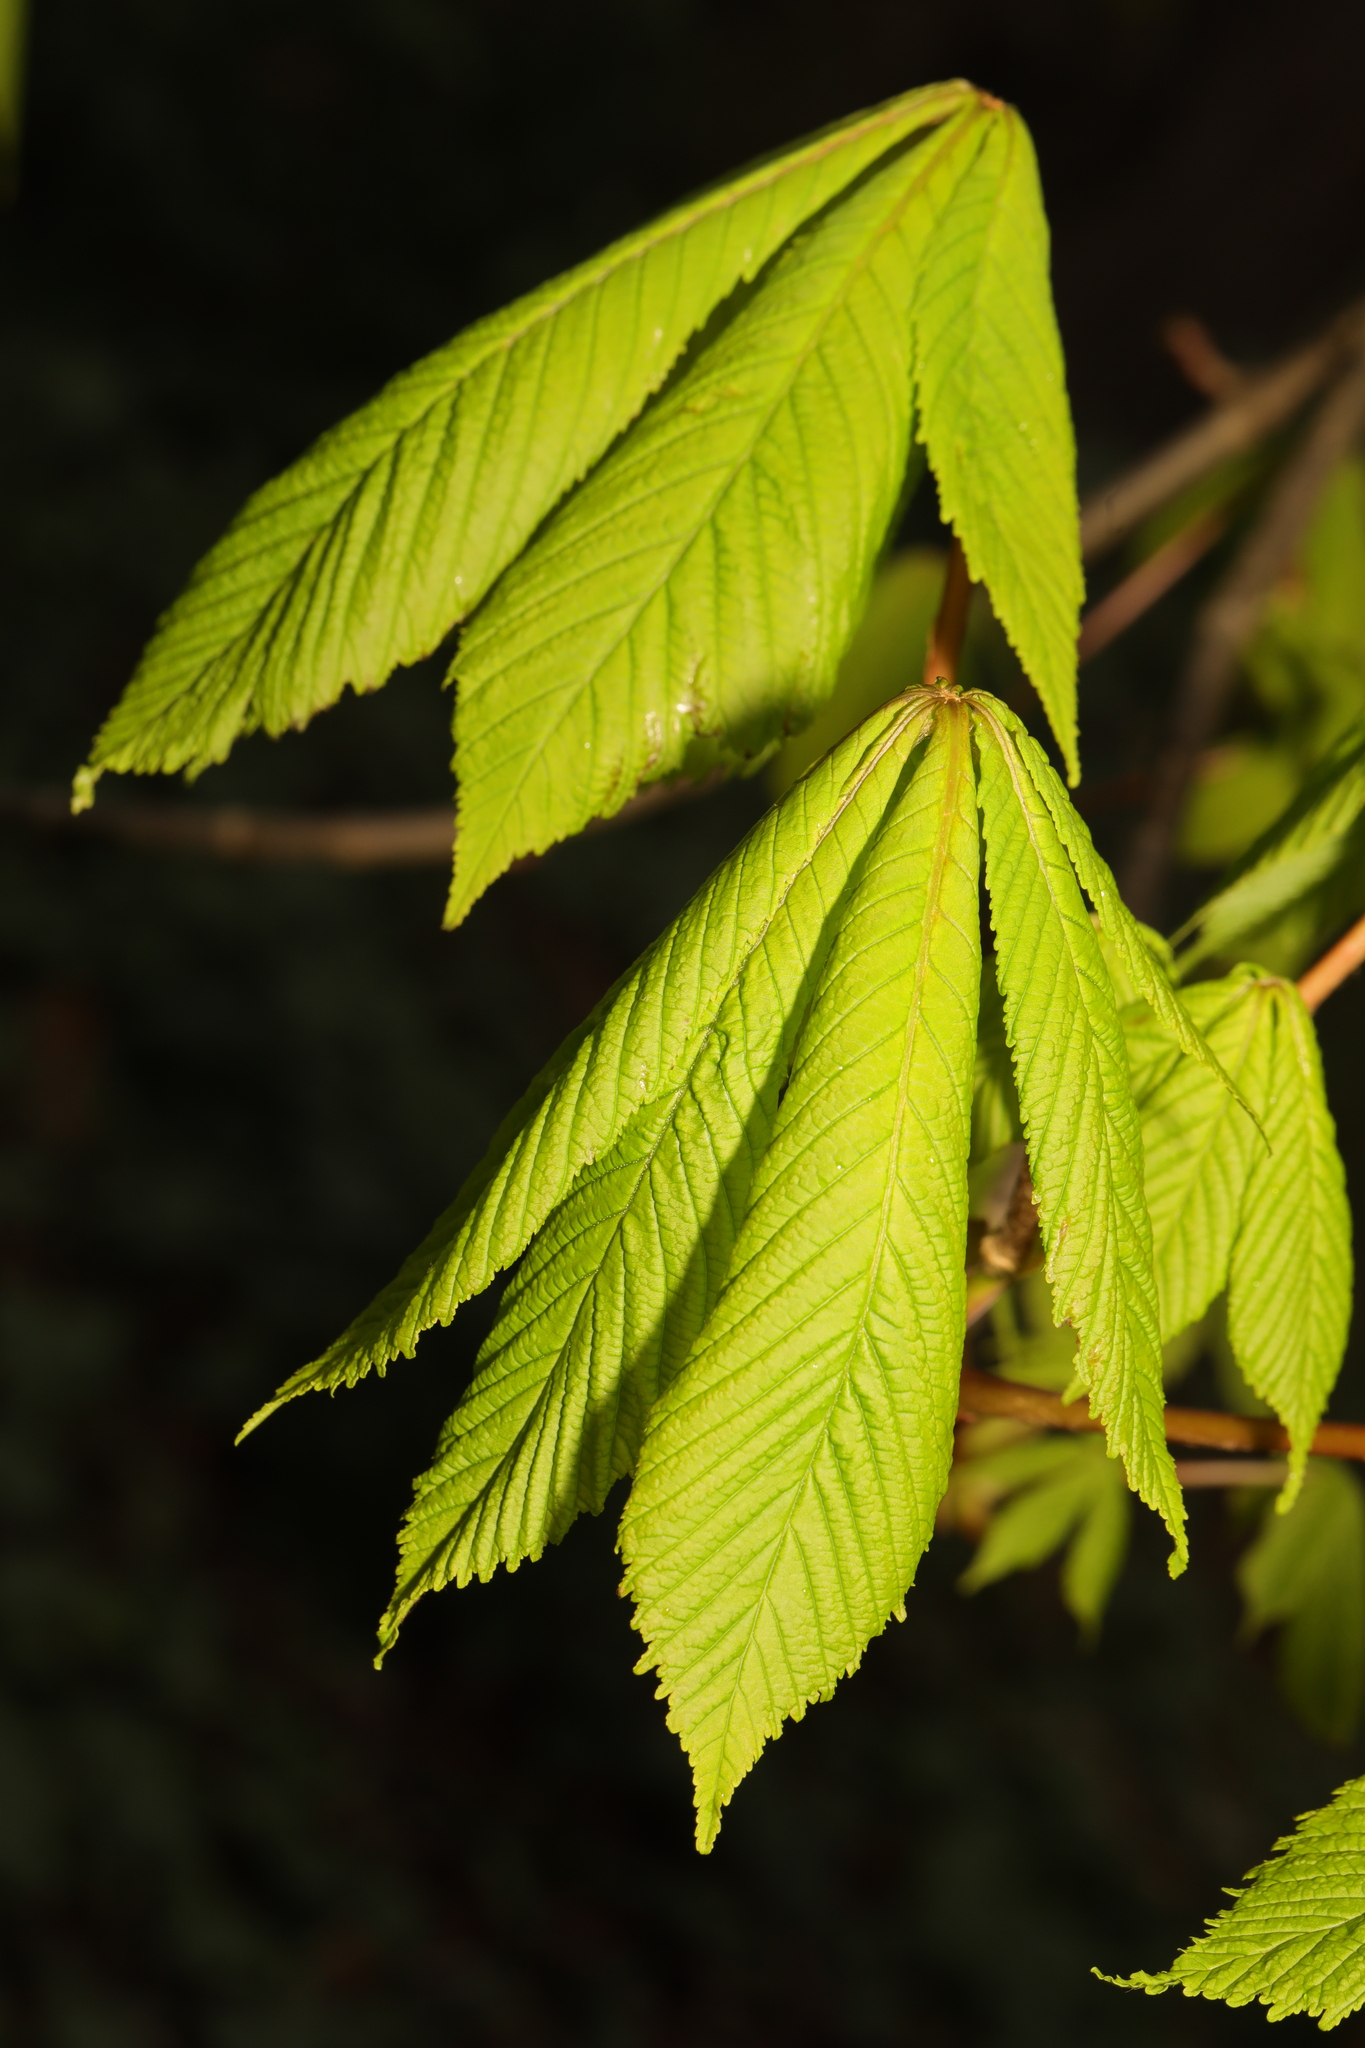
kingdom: Plantae
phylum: Tracheophyta
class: Magnoliopsida
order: Sapindales
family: Sapindaceae
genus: Aesculus
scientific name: Aesculus hippocastanum
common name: Horse-chestnut
